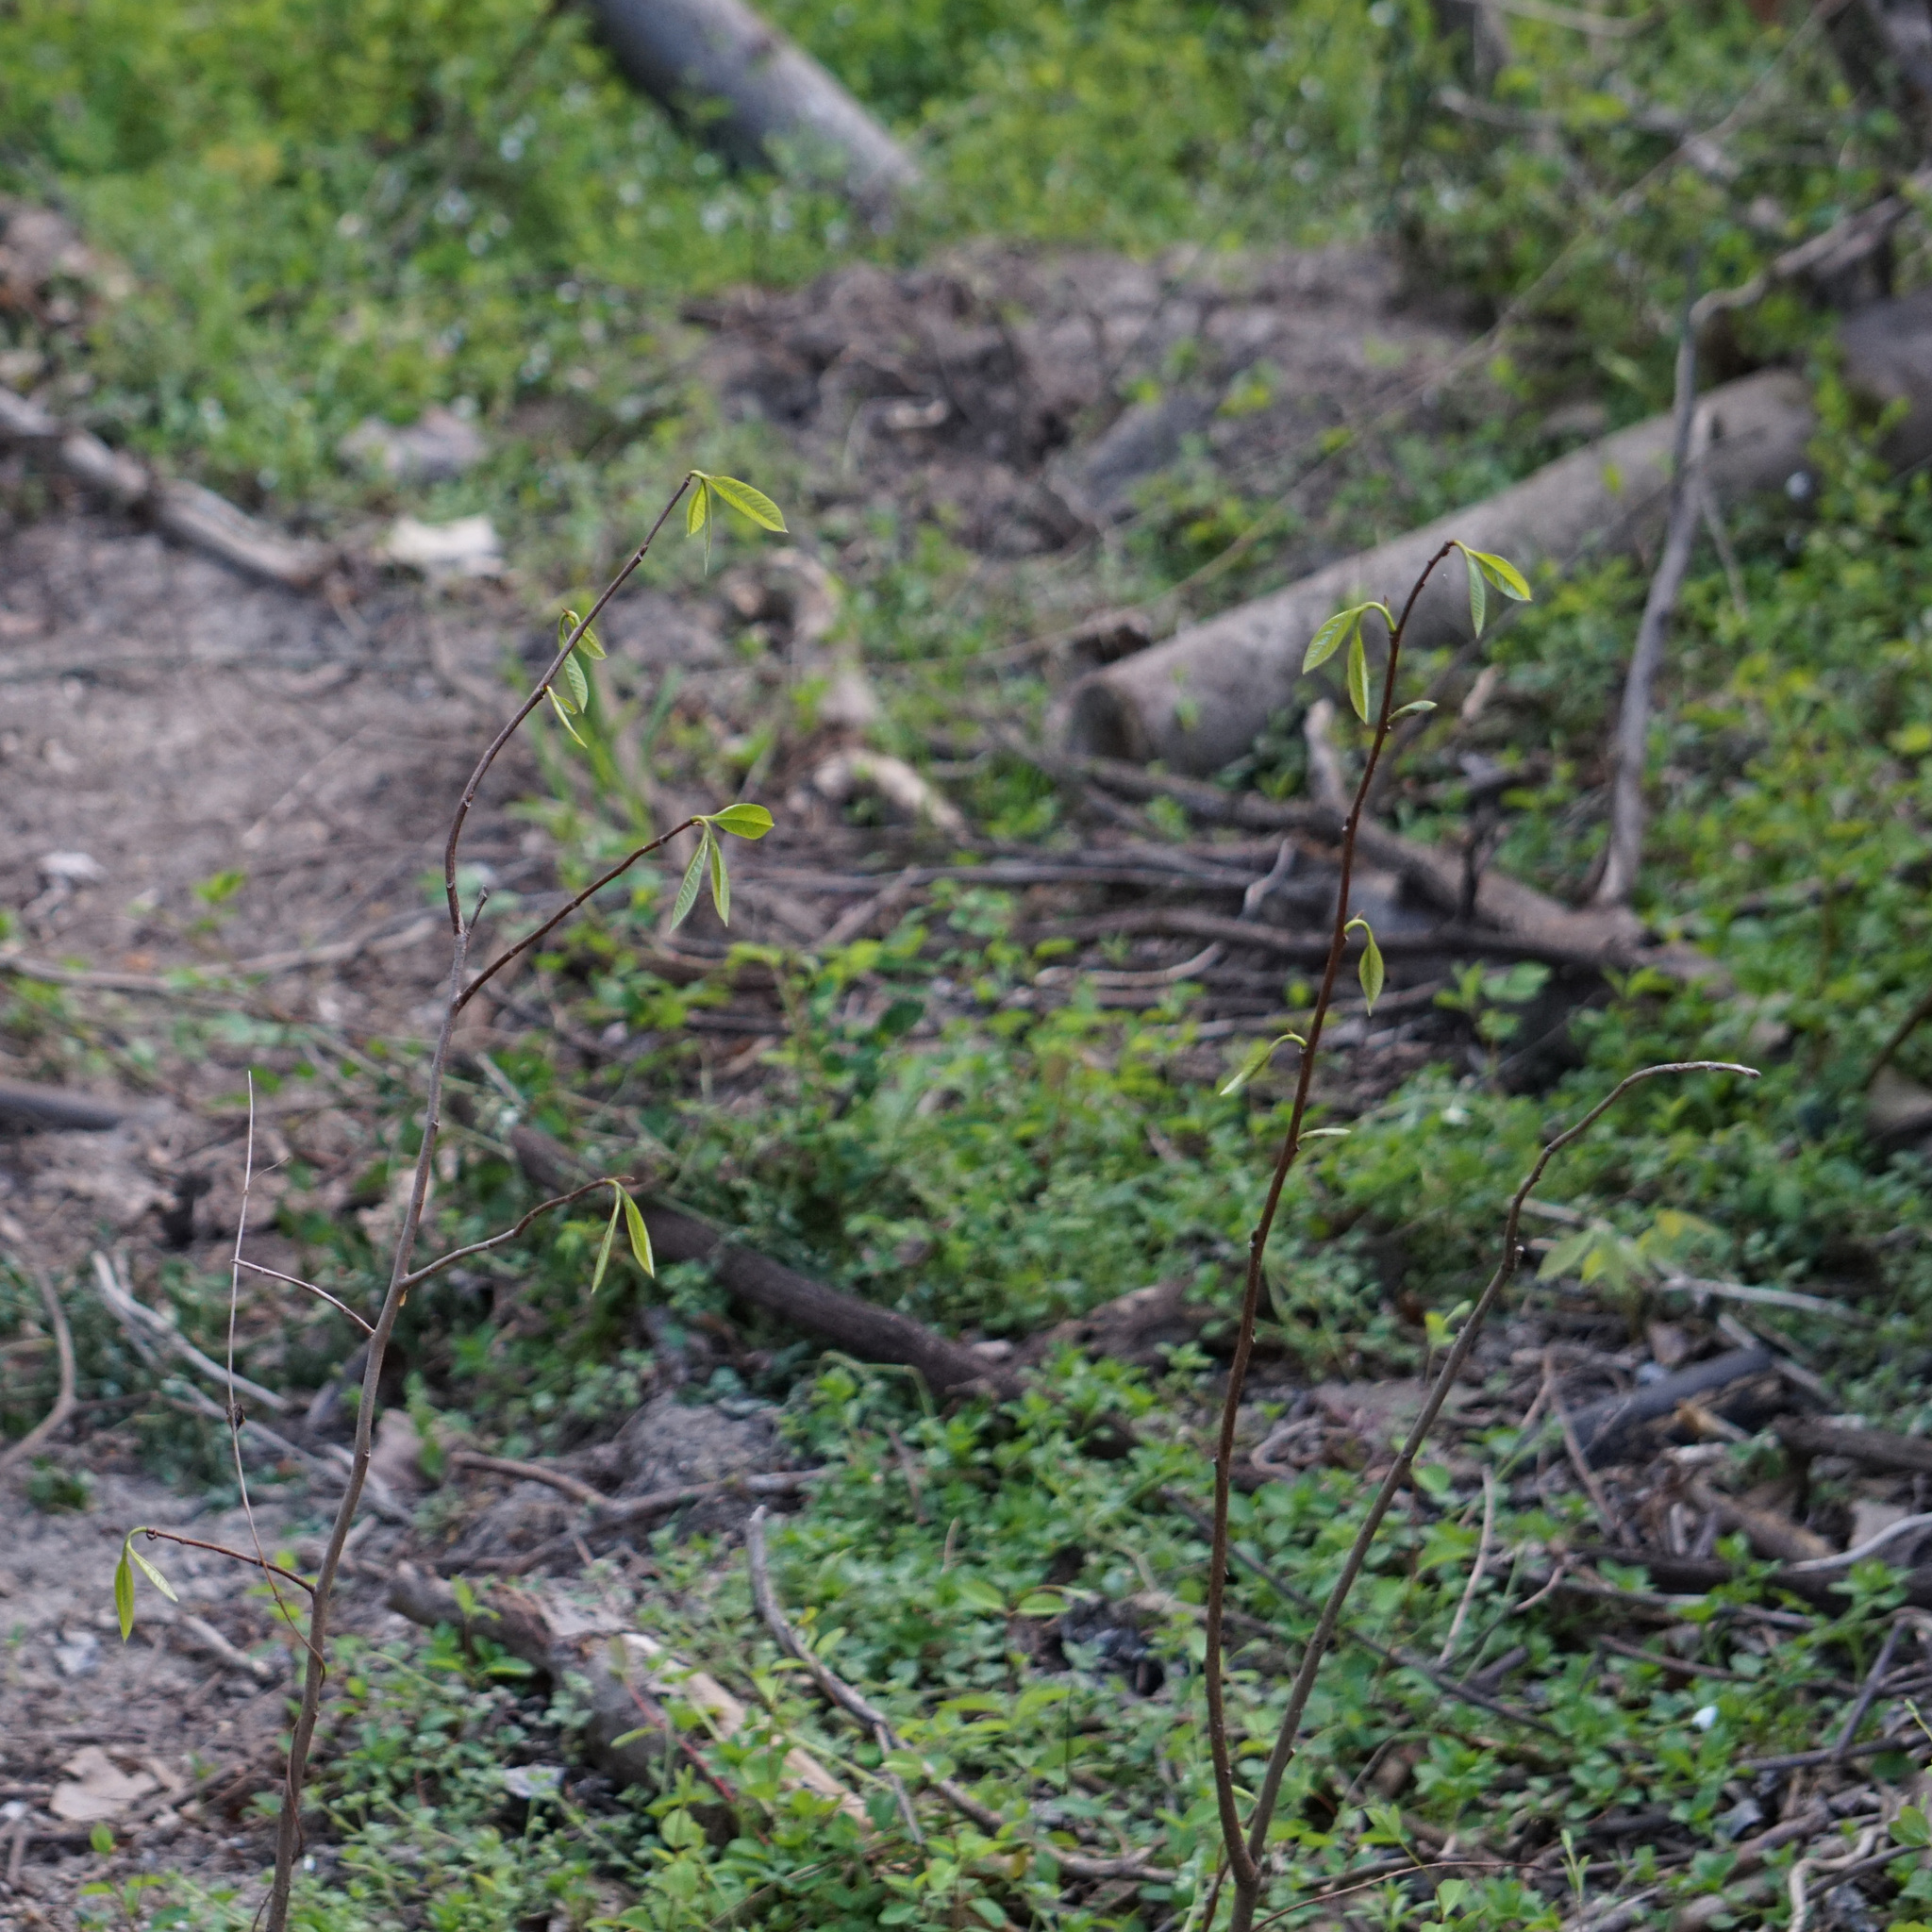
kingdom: Plantae
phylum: Tracheophyta
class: Magnoliopsida
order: Magnoliales
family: Annonaceae
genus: Asimina
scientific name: Asimina triloba
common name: Dog-banana
